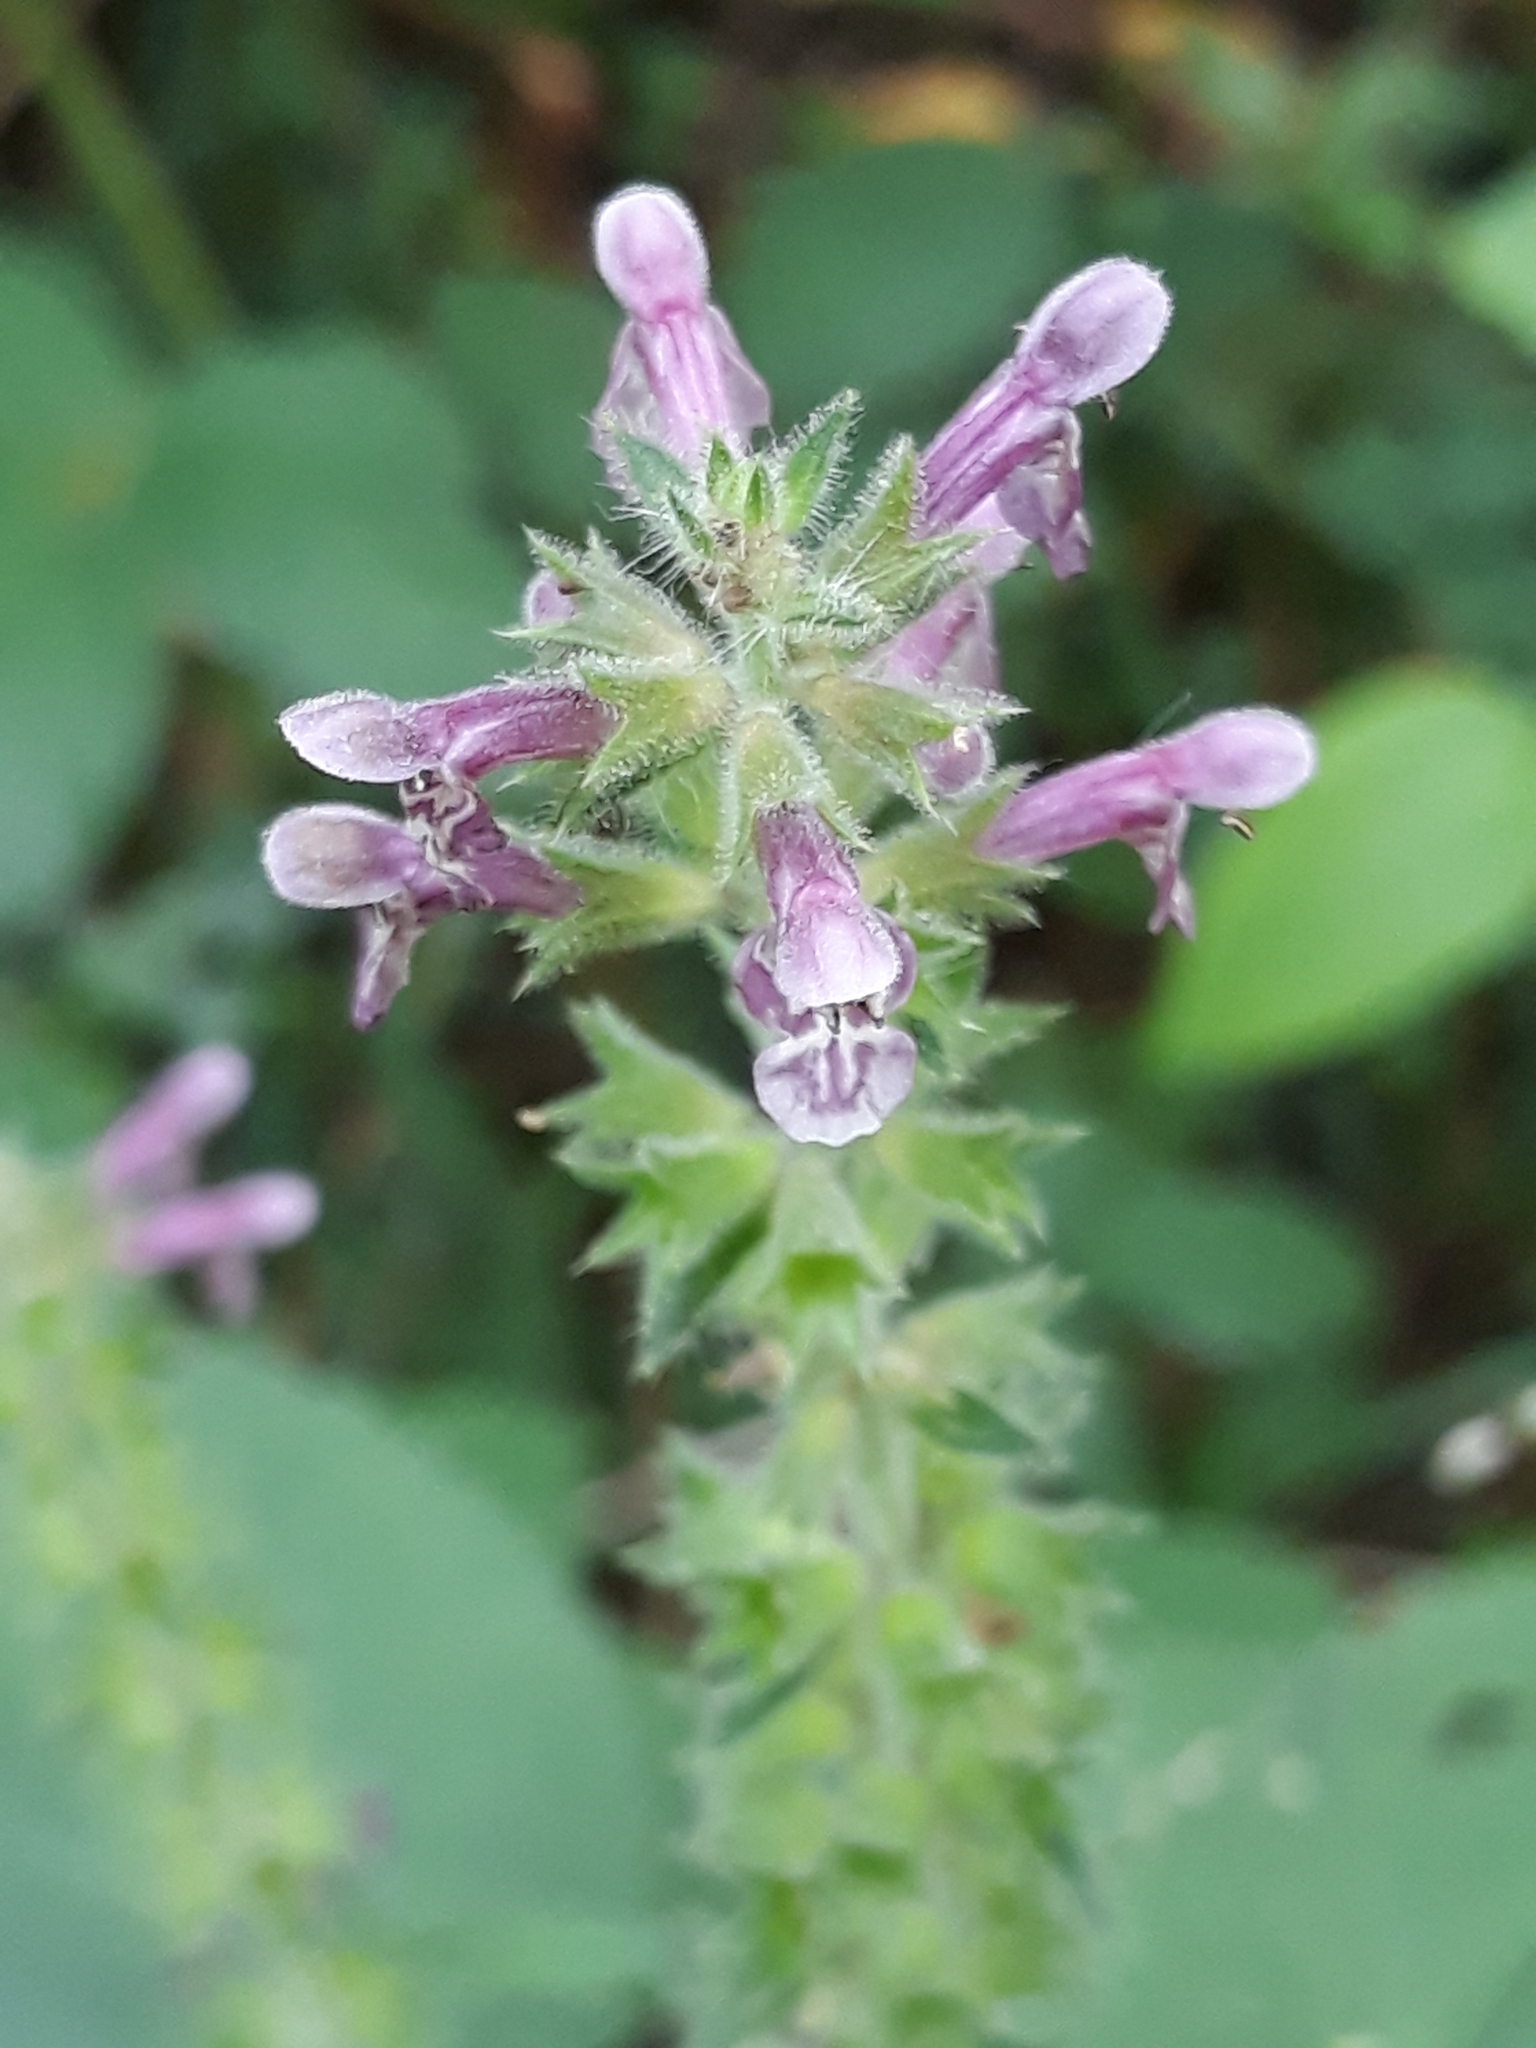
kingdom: Plantae
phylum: Tracheophyta
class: Magnoliopsida
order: Lamiales
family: Lamiaceae
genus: Stachys
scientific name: Stachys sylvatica
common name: Hedge woundwort
